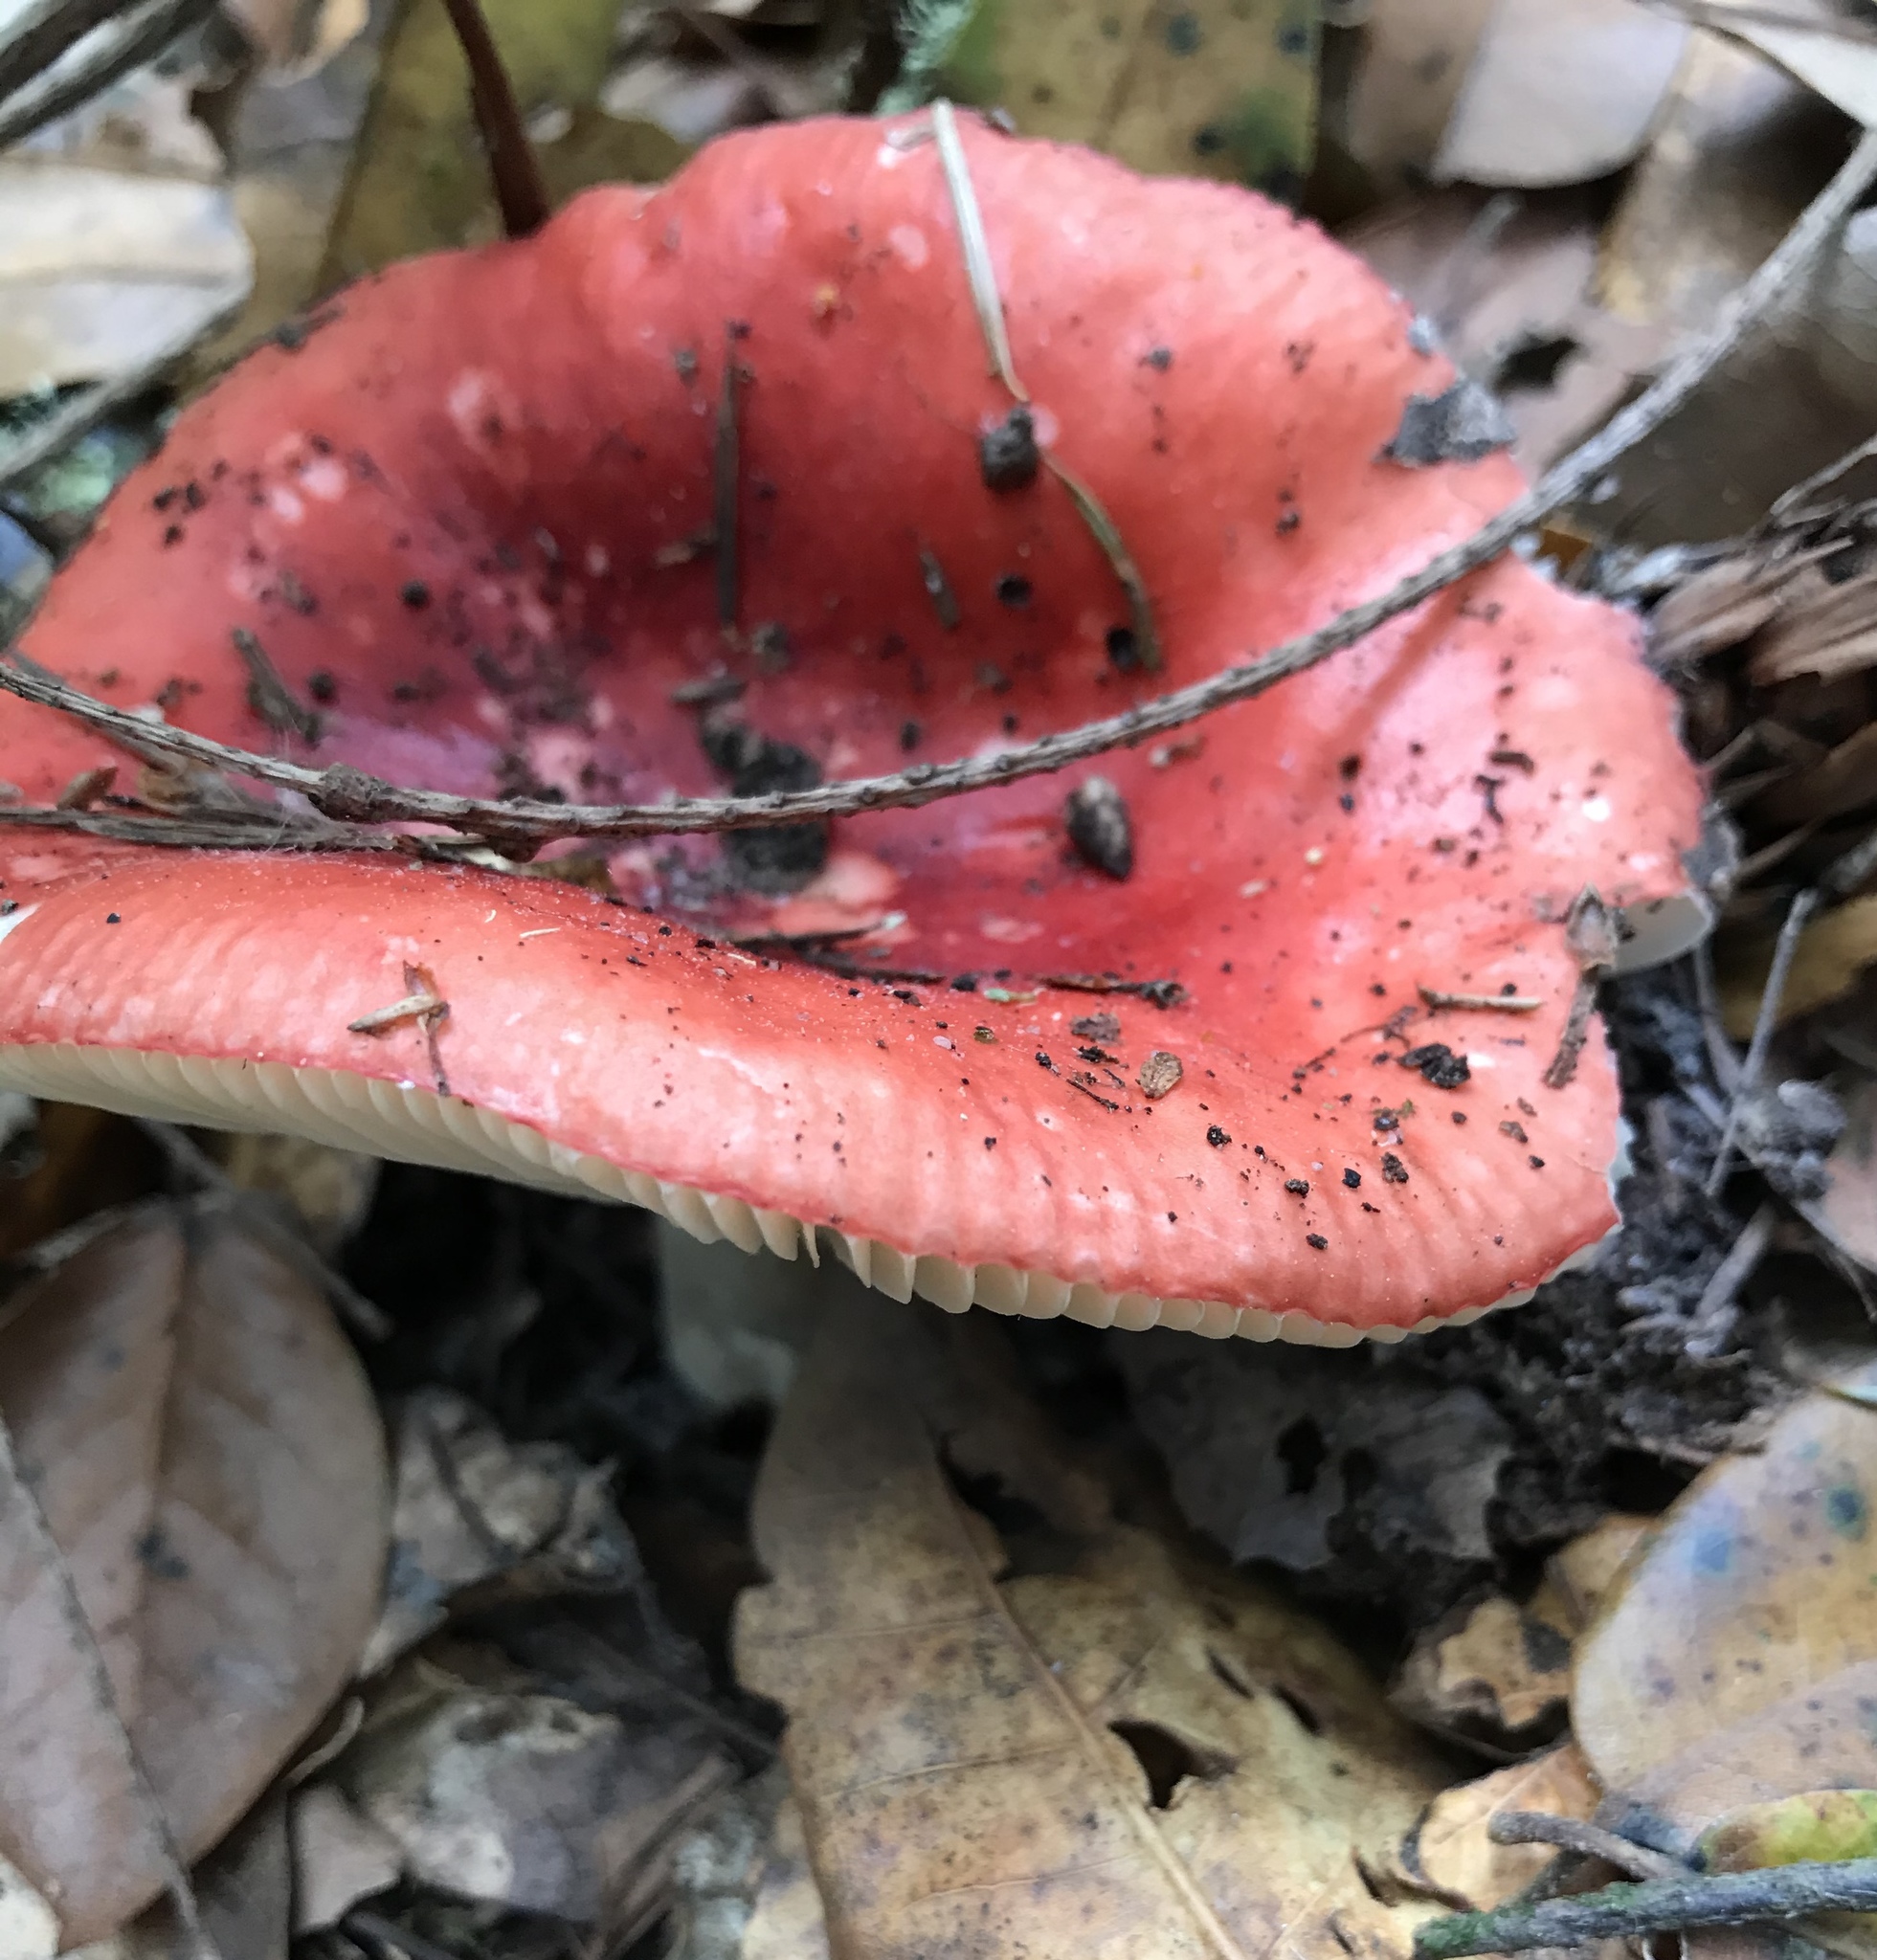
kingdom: Fungi
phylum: Basidiomycota
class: Agaricomycetes
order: Russulales
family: Russulaceae
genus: Russula
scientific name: Russula cremoricolor
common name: Winter russula
